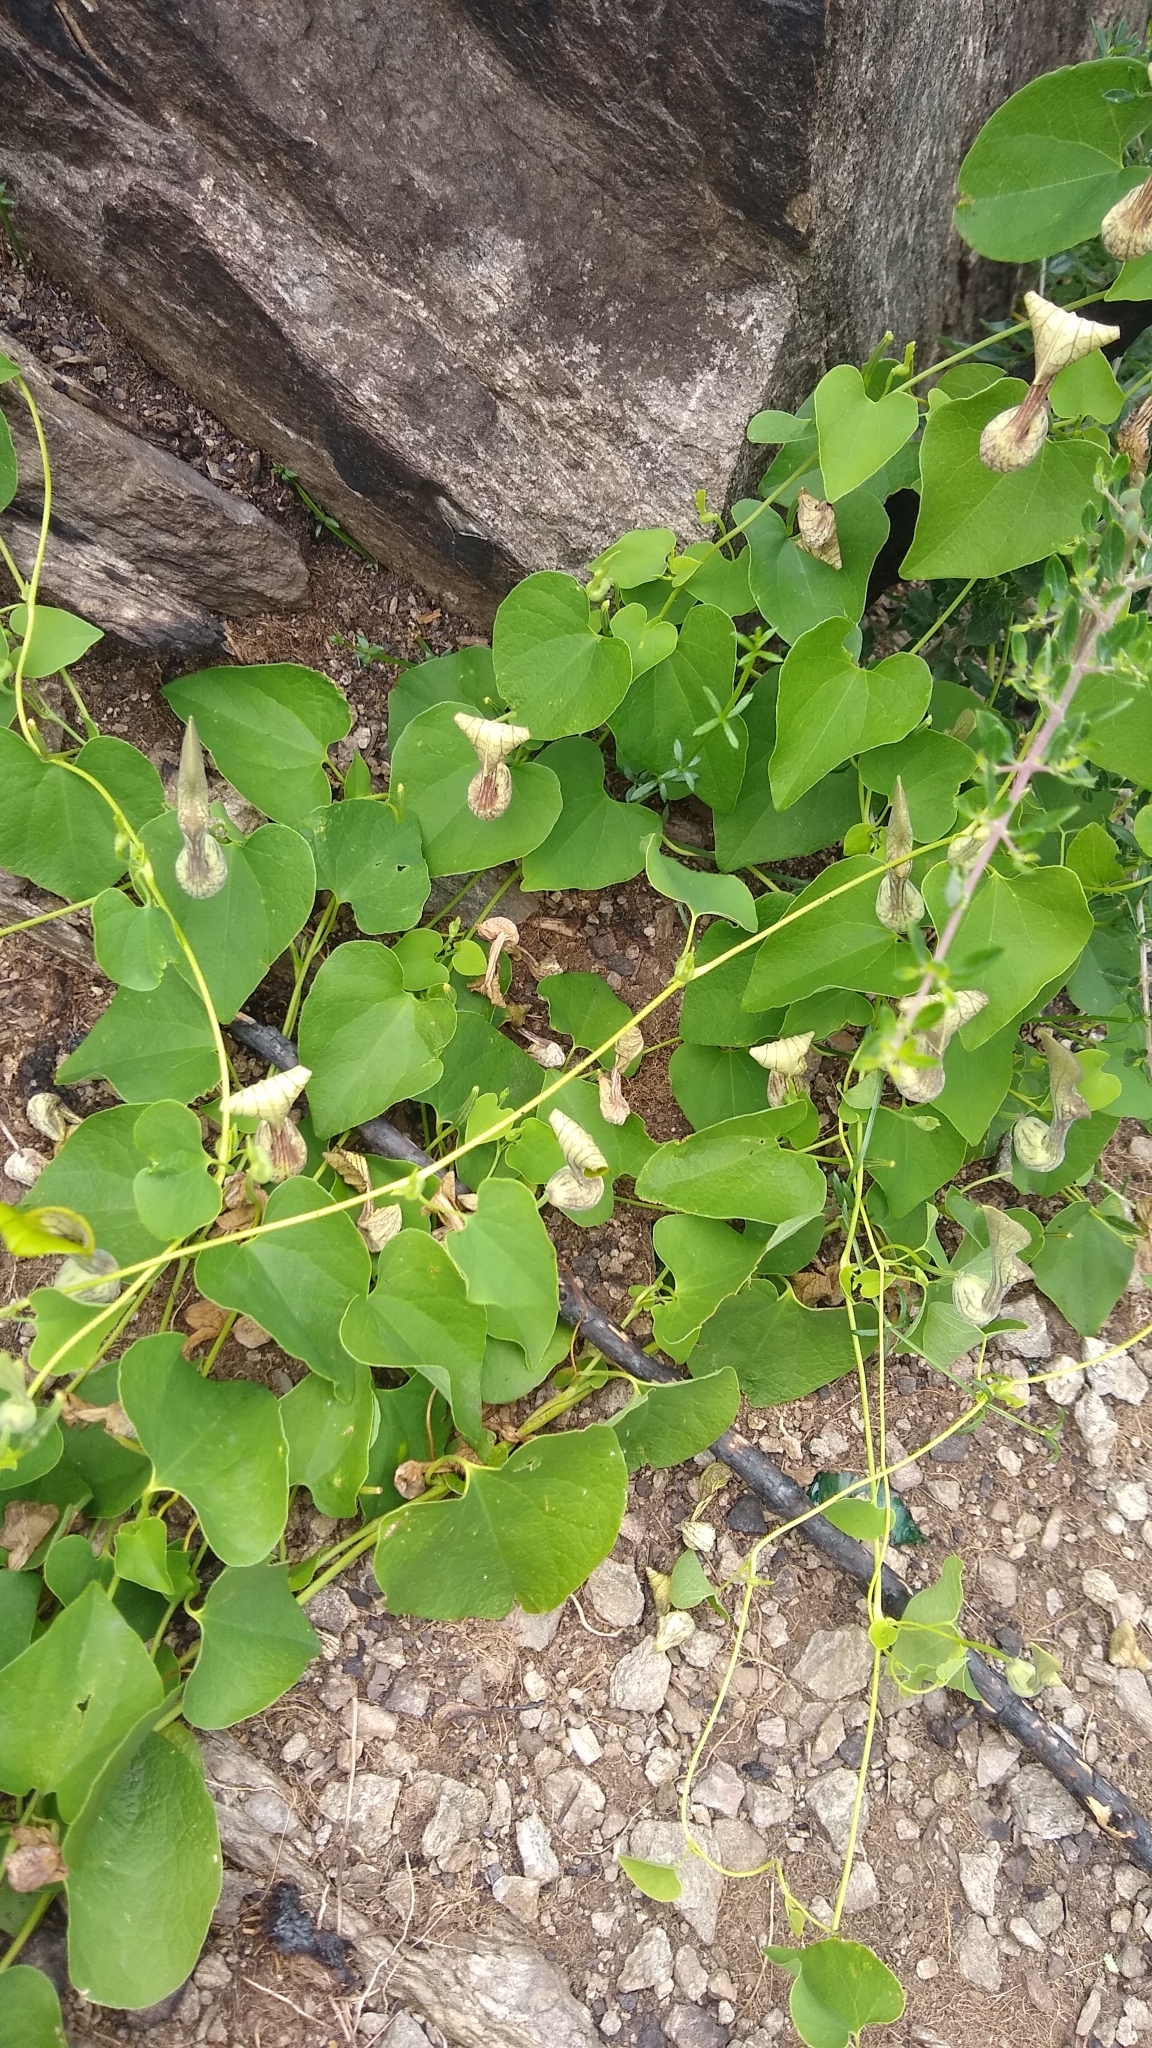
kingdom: Plantae
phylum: Tracheophyta
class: Magnoliopsida
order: Piperales
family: Aristolochiaceae
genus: Aristolochia
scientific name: Aristolochia argentina
